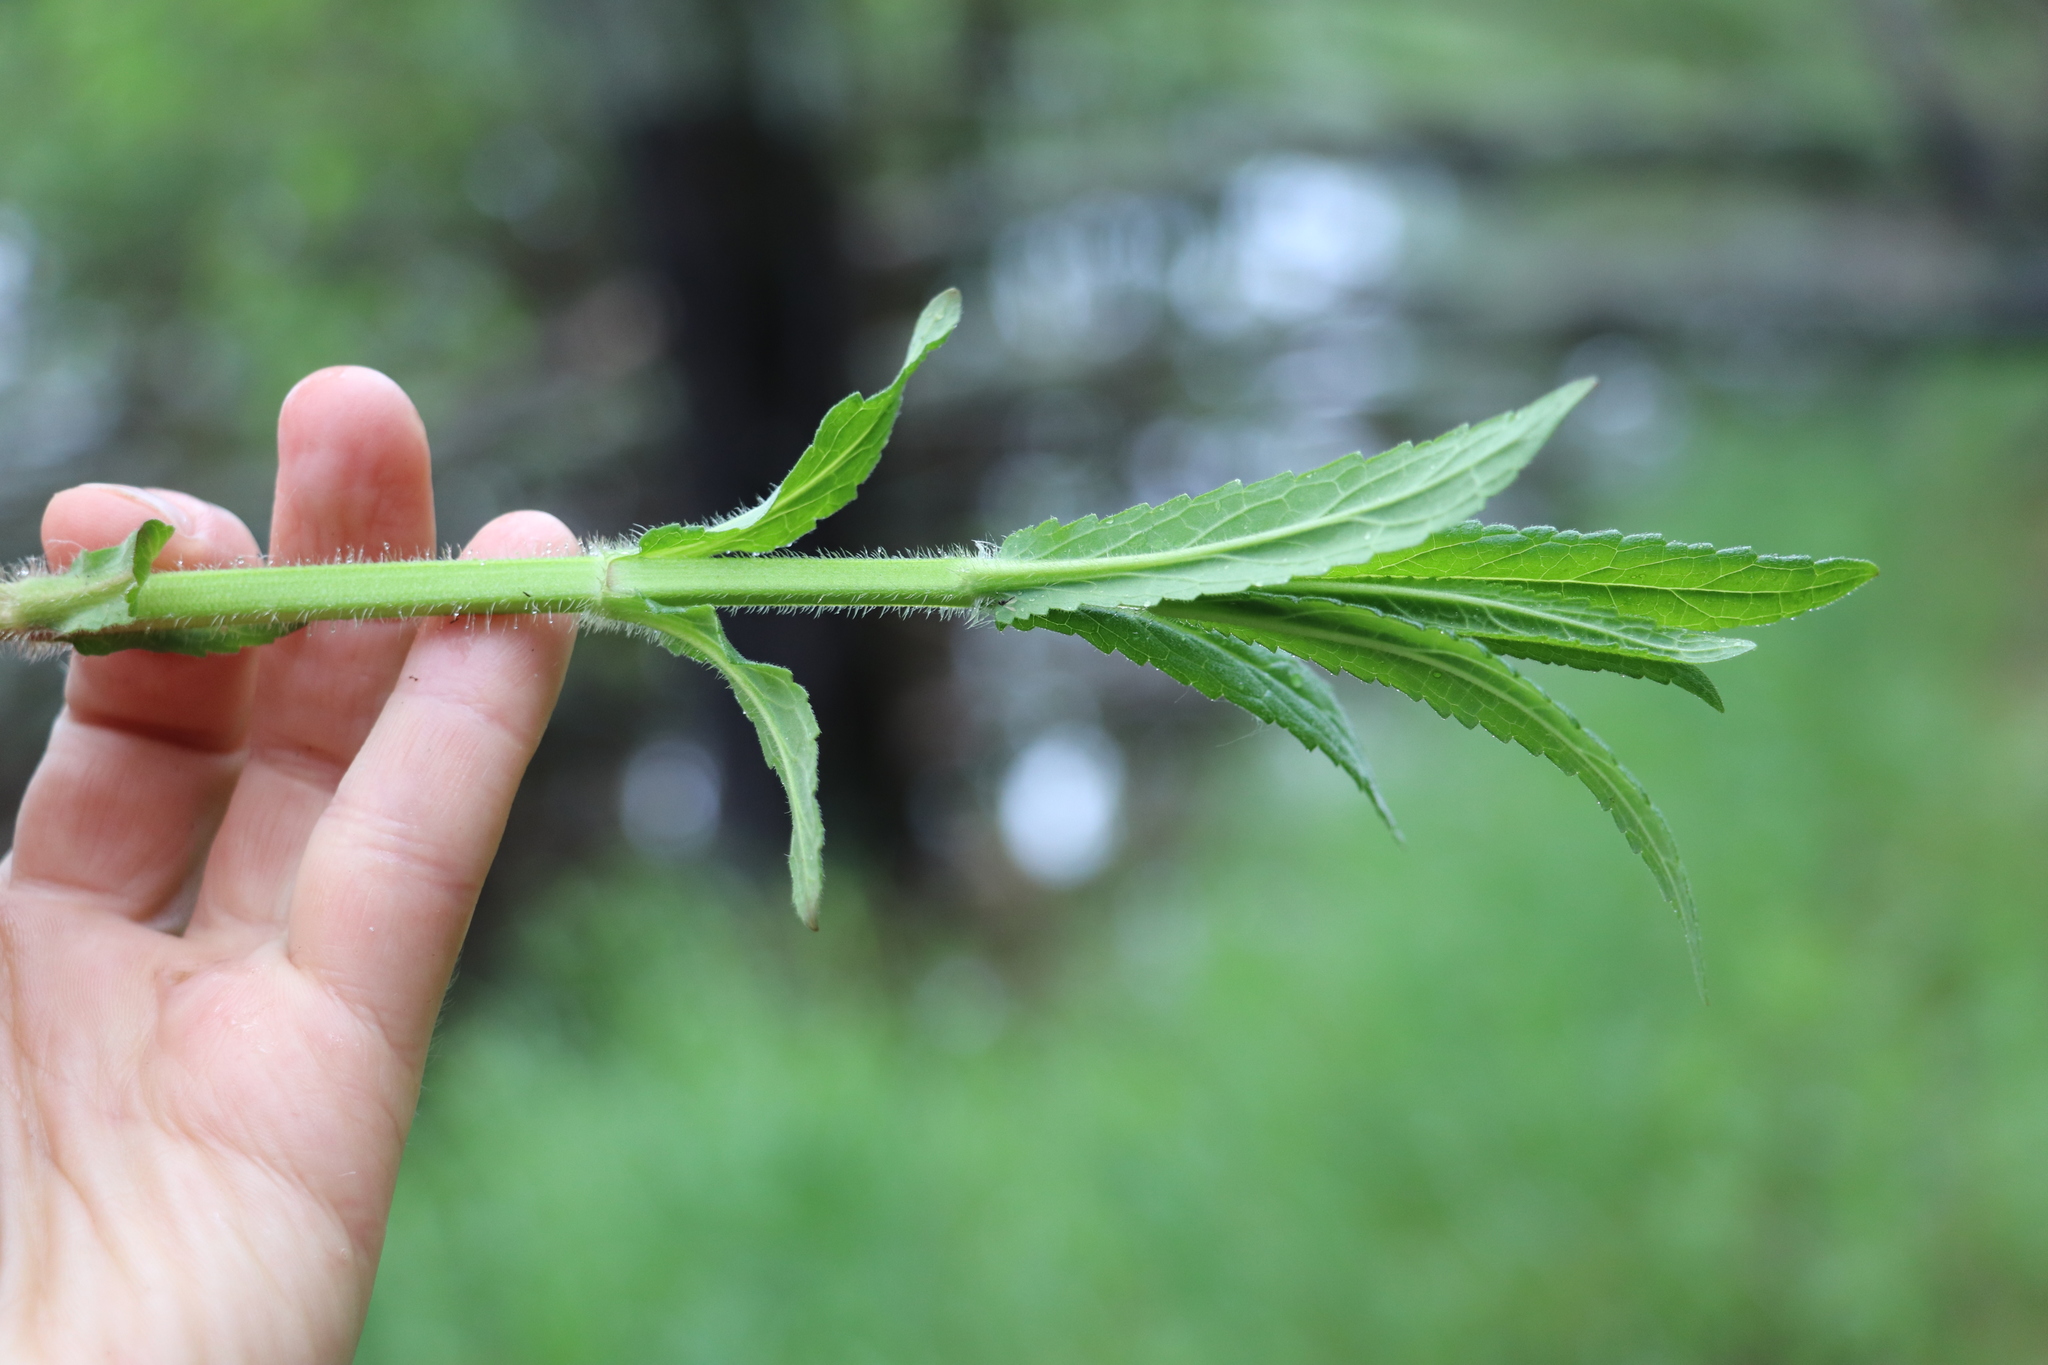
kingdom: Plantae
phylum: Tracheophyta
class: Magnoliopsida
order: Lamiales
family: Lamiaceae
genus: Stachys
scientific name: Stachys palustris
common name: Marsh woundwort
